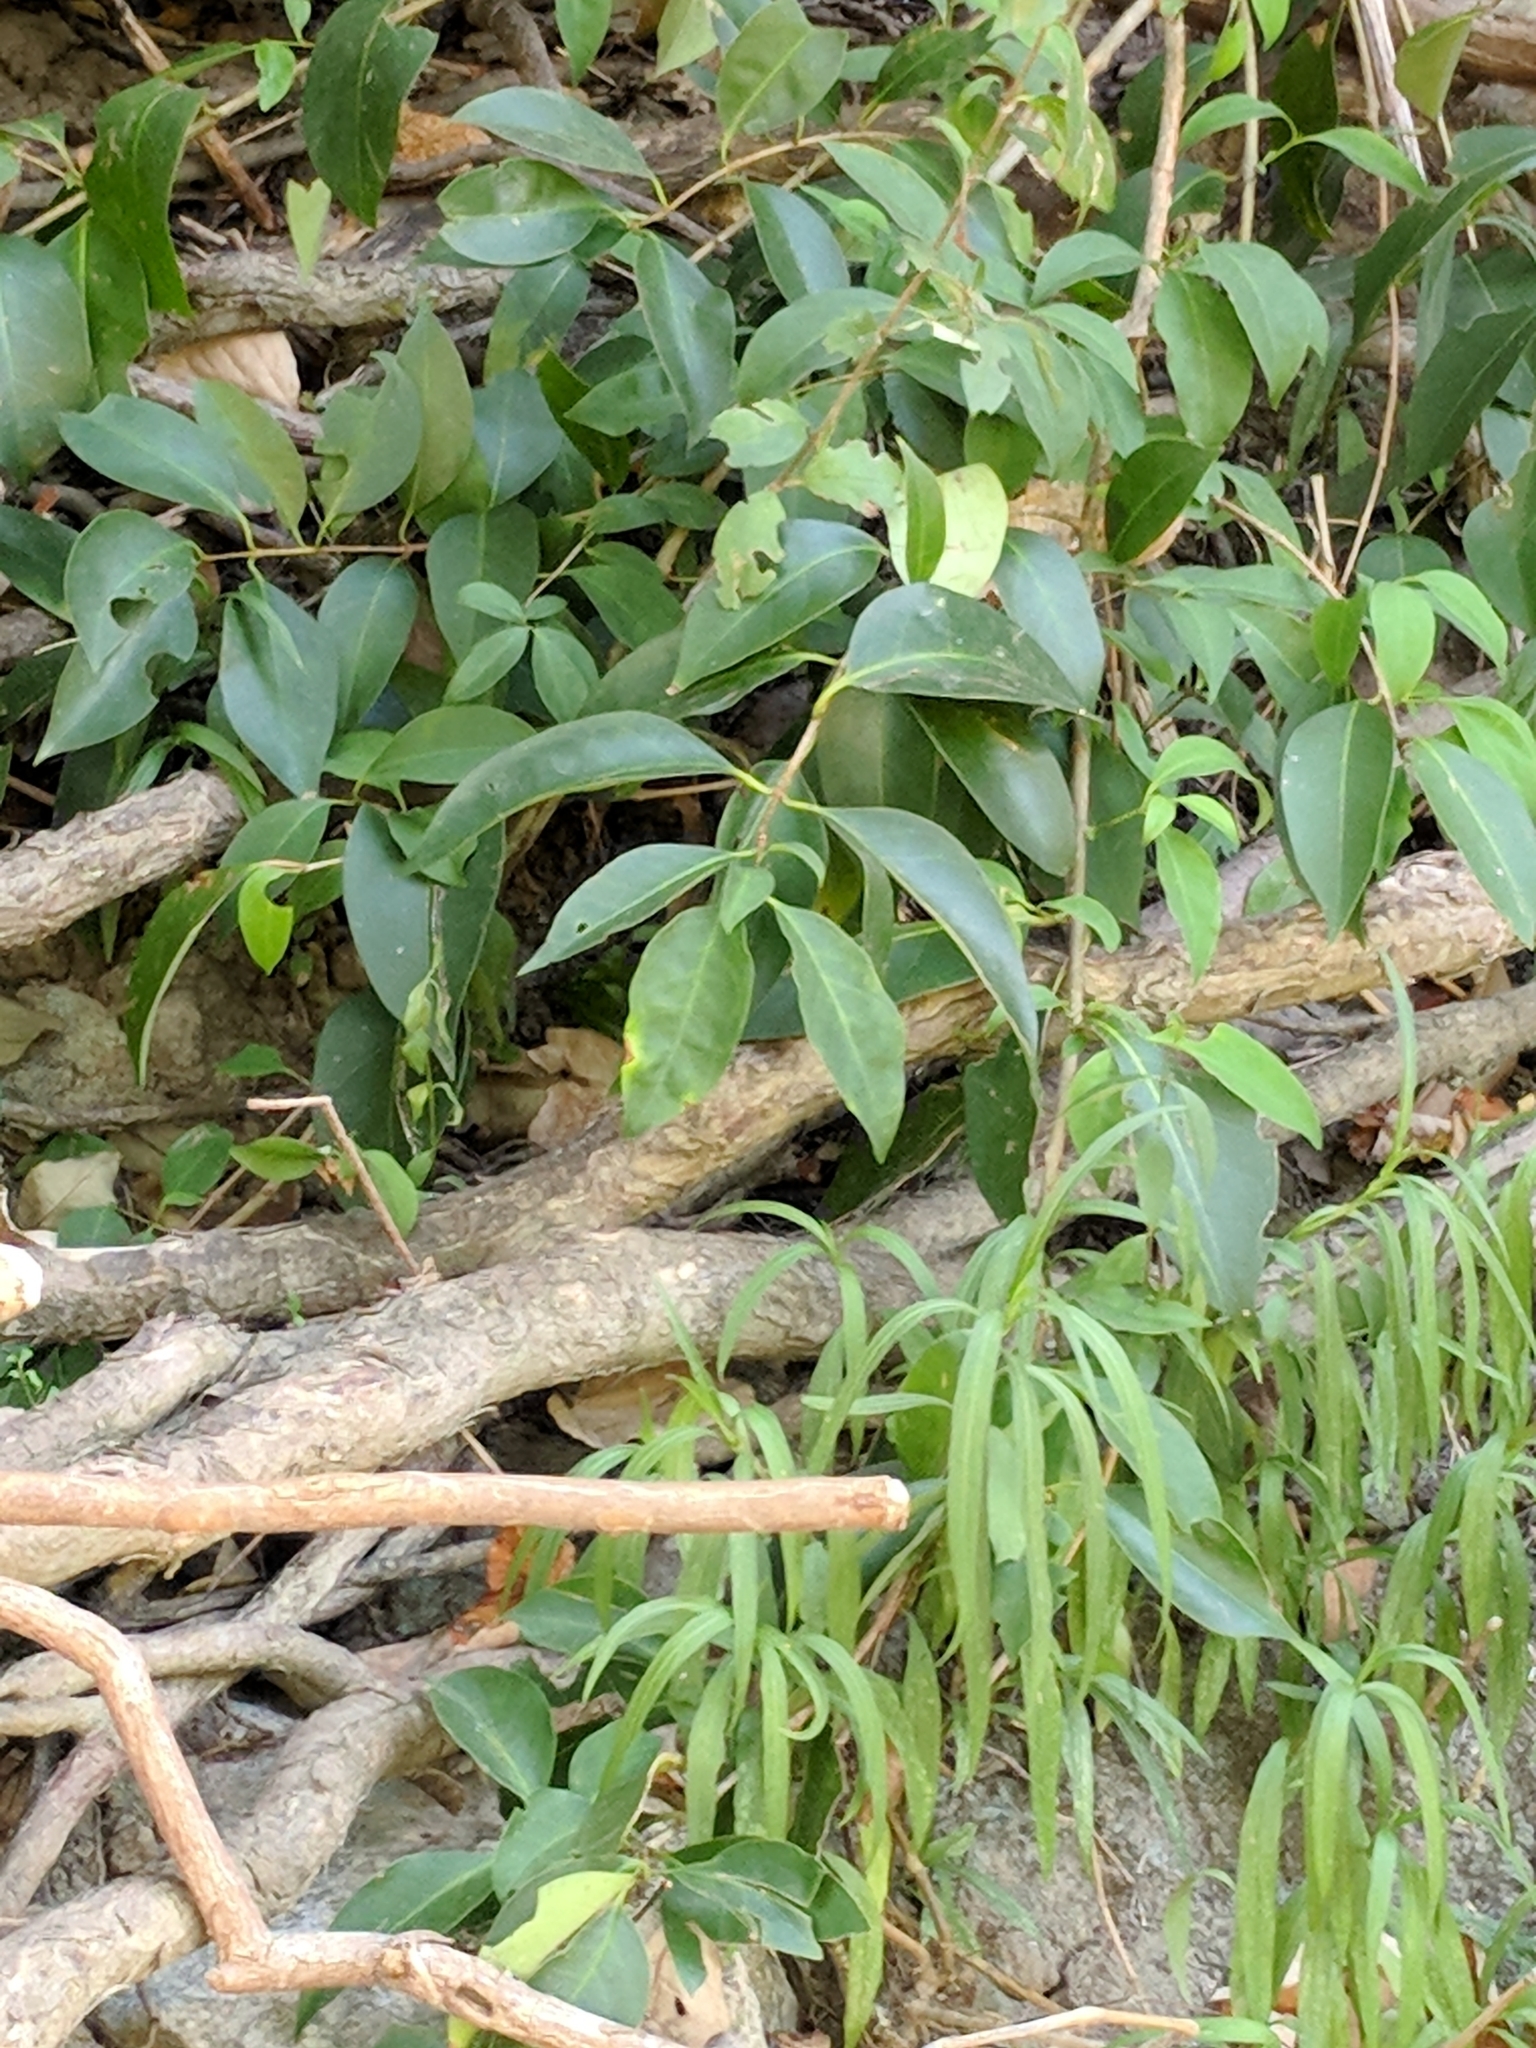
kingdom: Plantae
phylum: Tracheophyta
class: Magnoliopsida
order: Lamiales
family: Oleaceae
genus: Ligustrum
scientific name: Ligustrum lucidum
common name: Glossy privet
